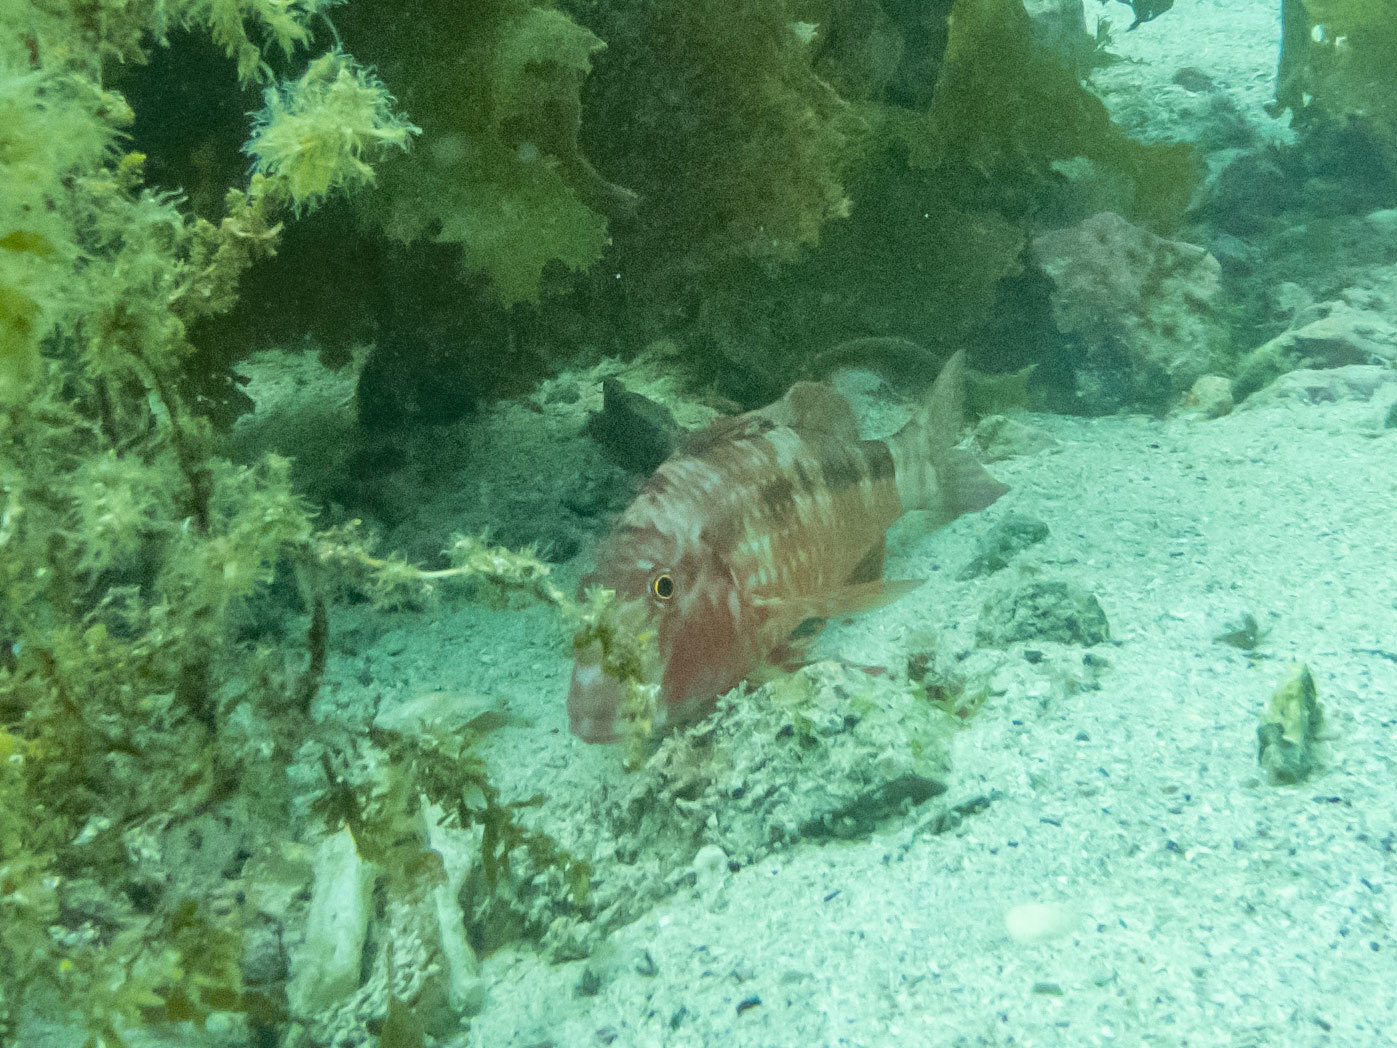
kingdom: Animalia
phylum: Chordata
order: Perciformes
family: Mullidae
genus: Upeneichthys
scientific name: Upeneichthys lineatus
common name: Red mullet
